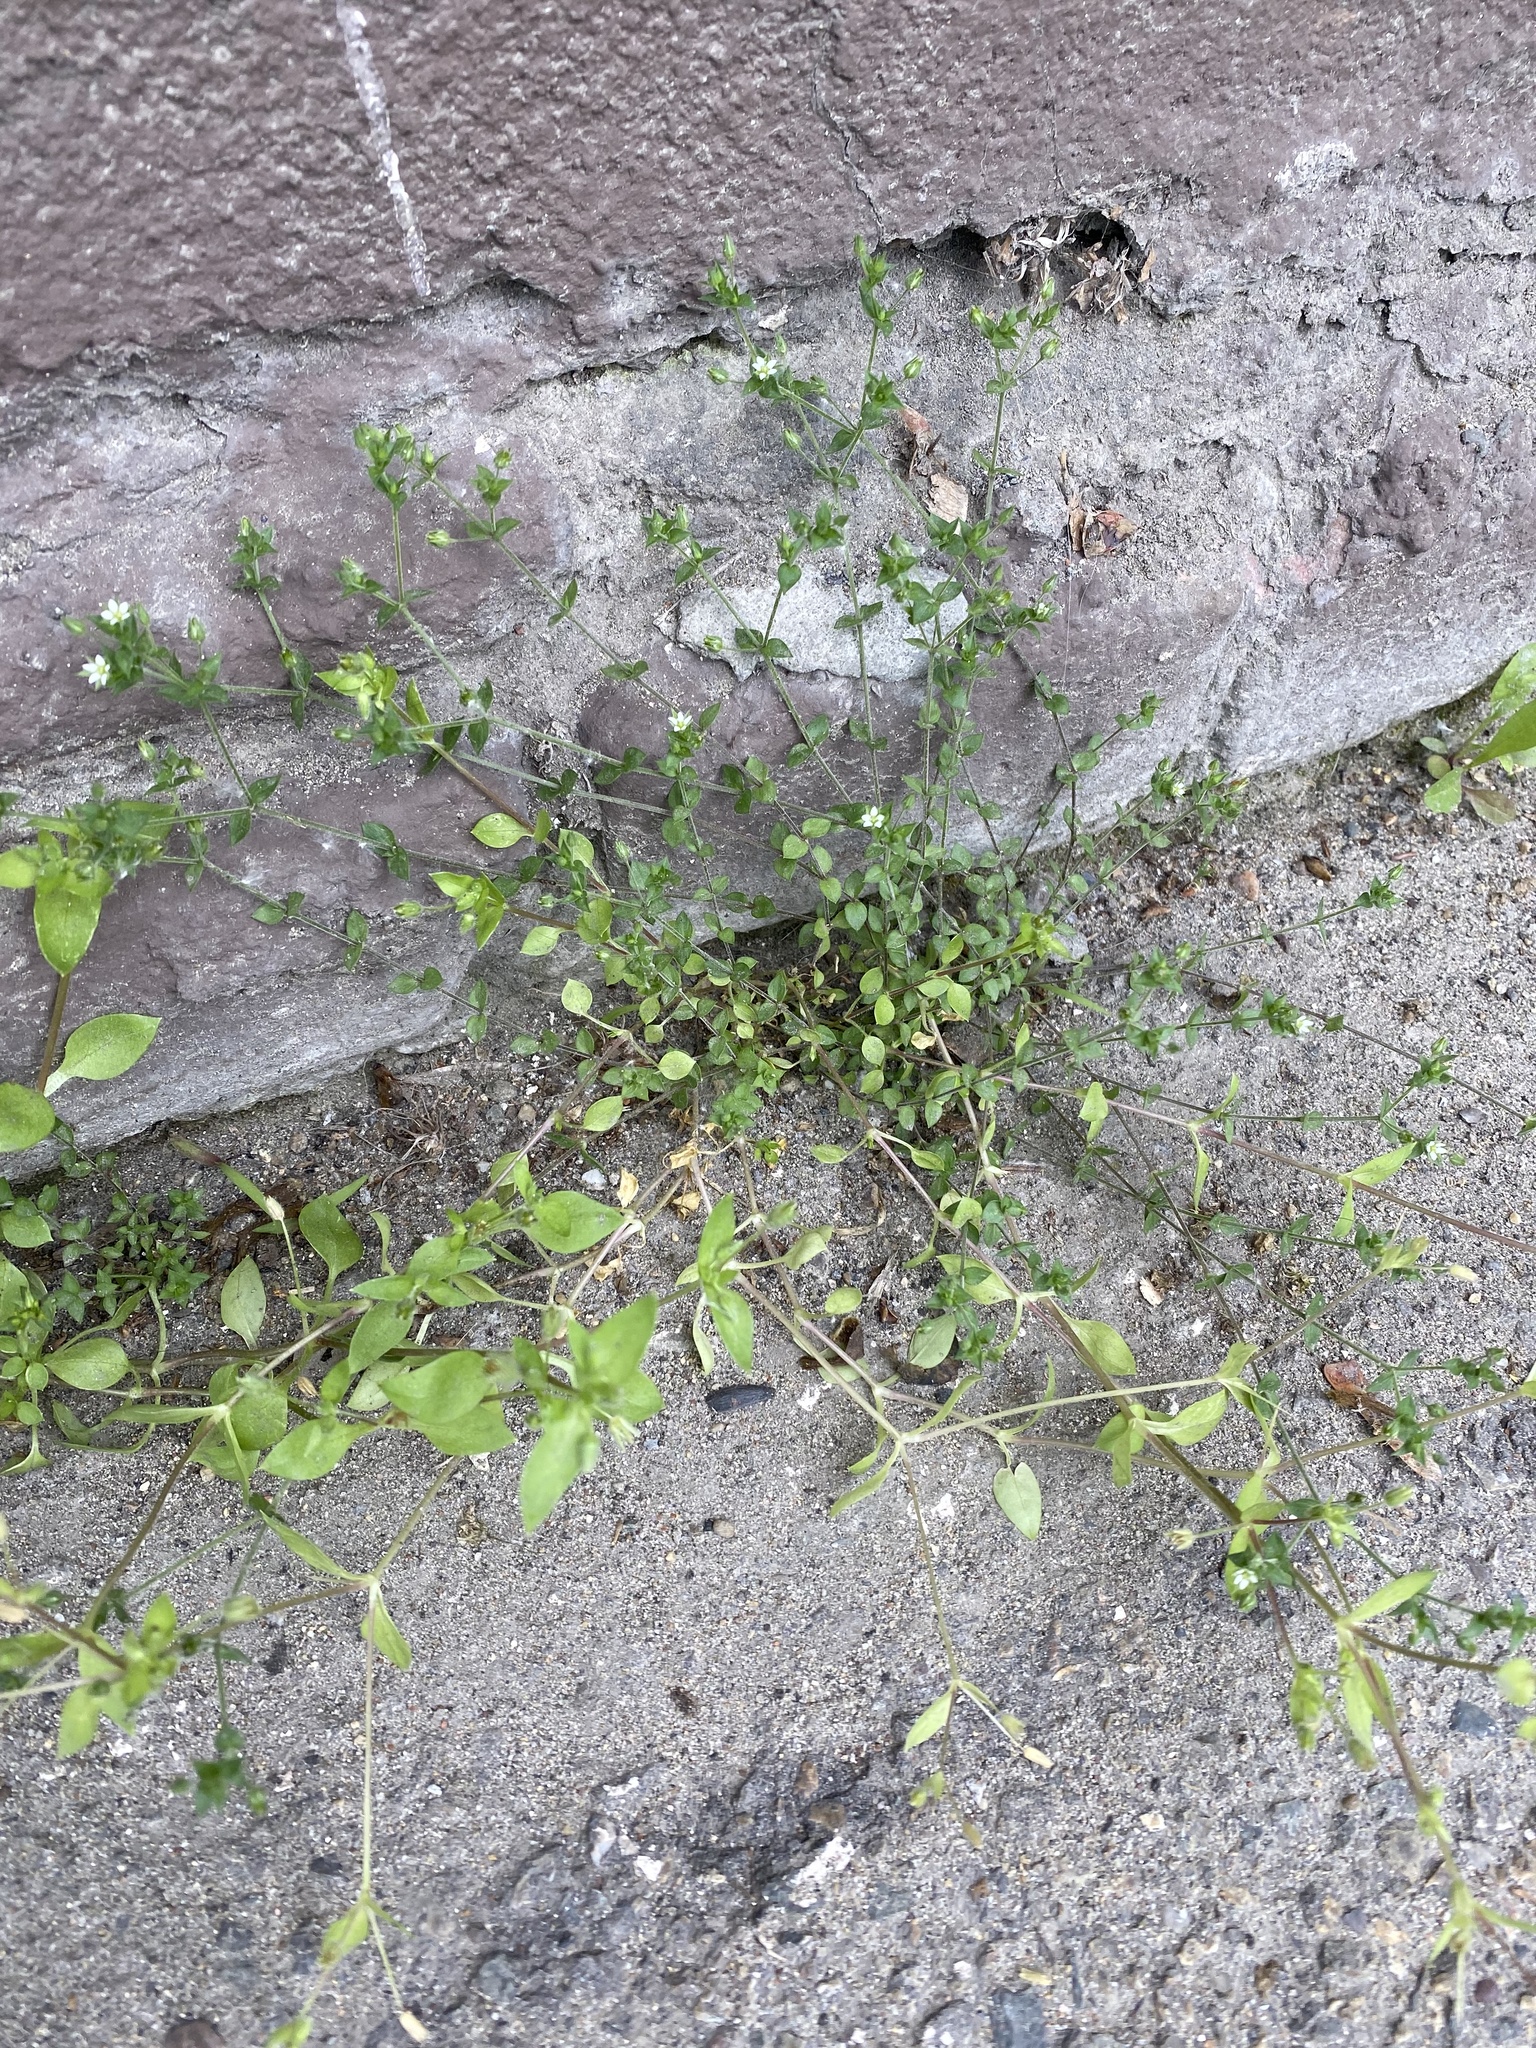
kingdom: Plantae
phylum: Tracheophyta
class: Magnoliopsida
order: Caryophyllales
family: Caryophyllaceae
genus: Arenaria
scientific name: Arenaria serpyllifolia
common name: Thyme-leaved sandwort
